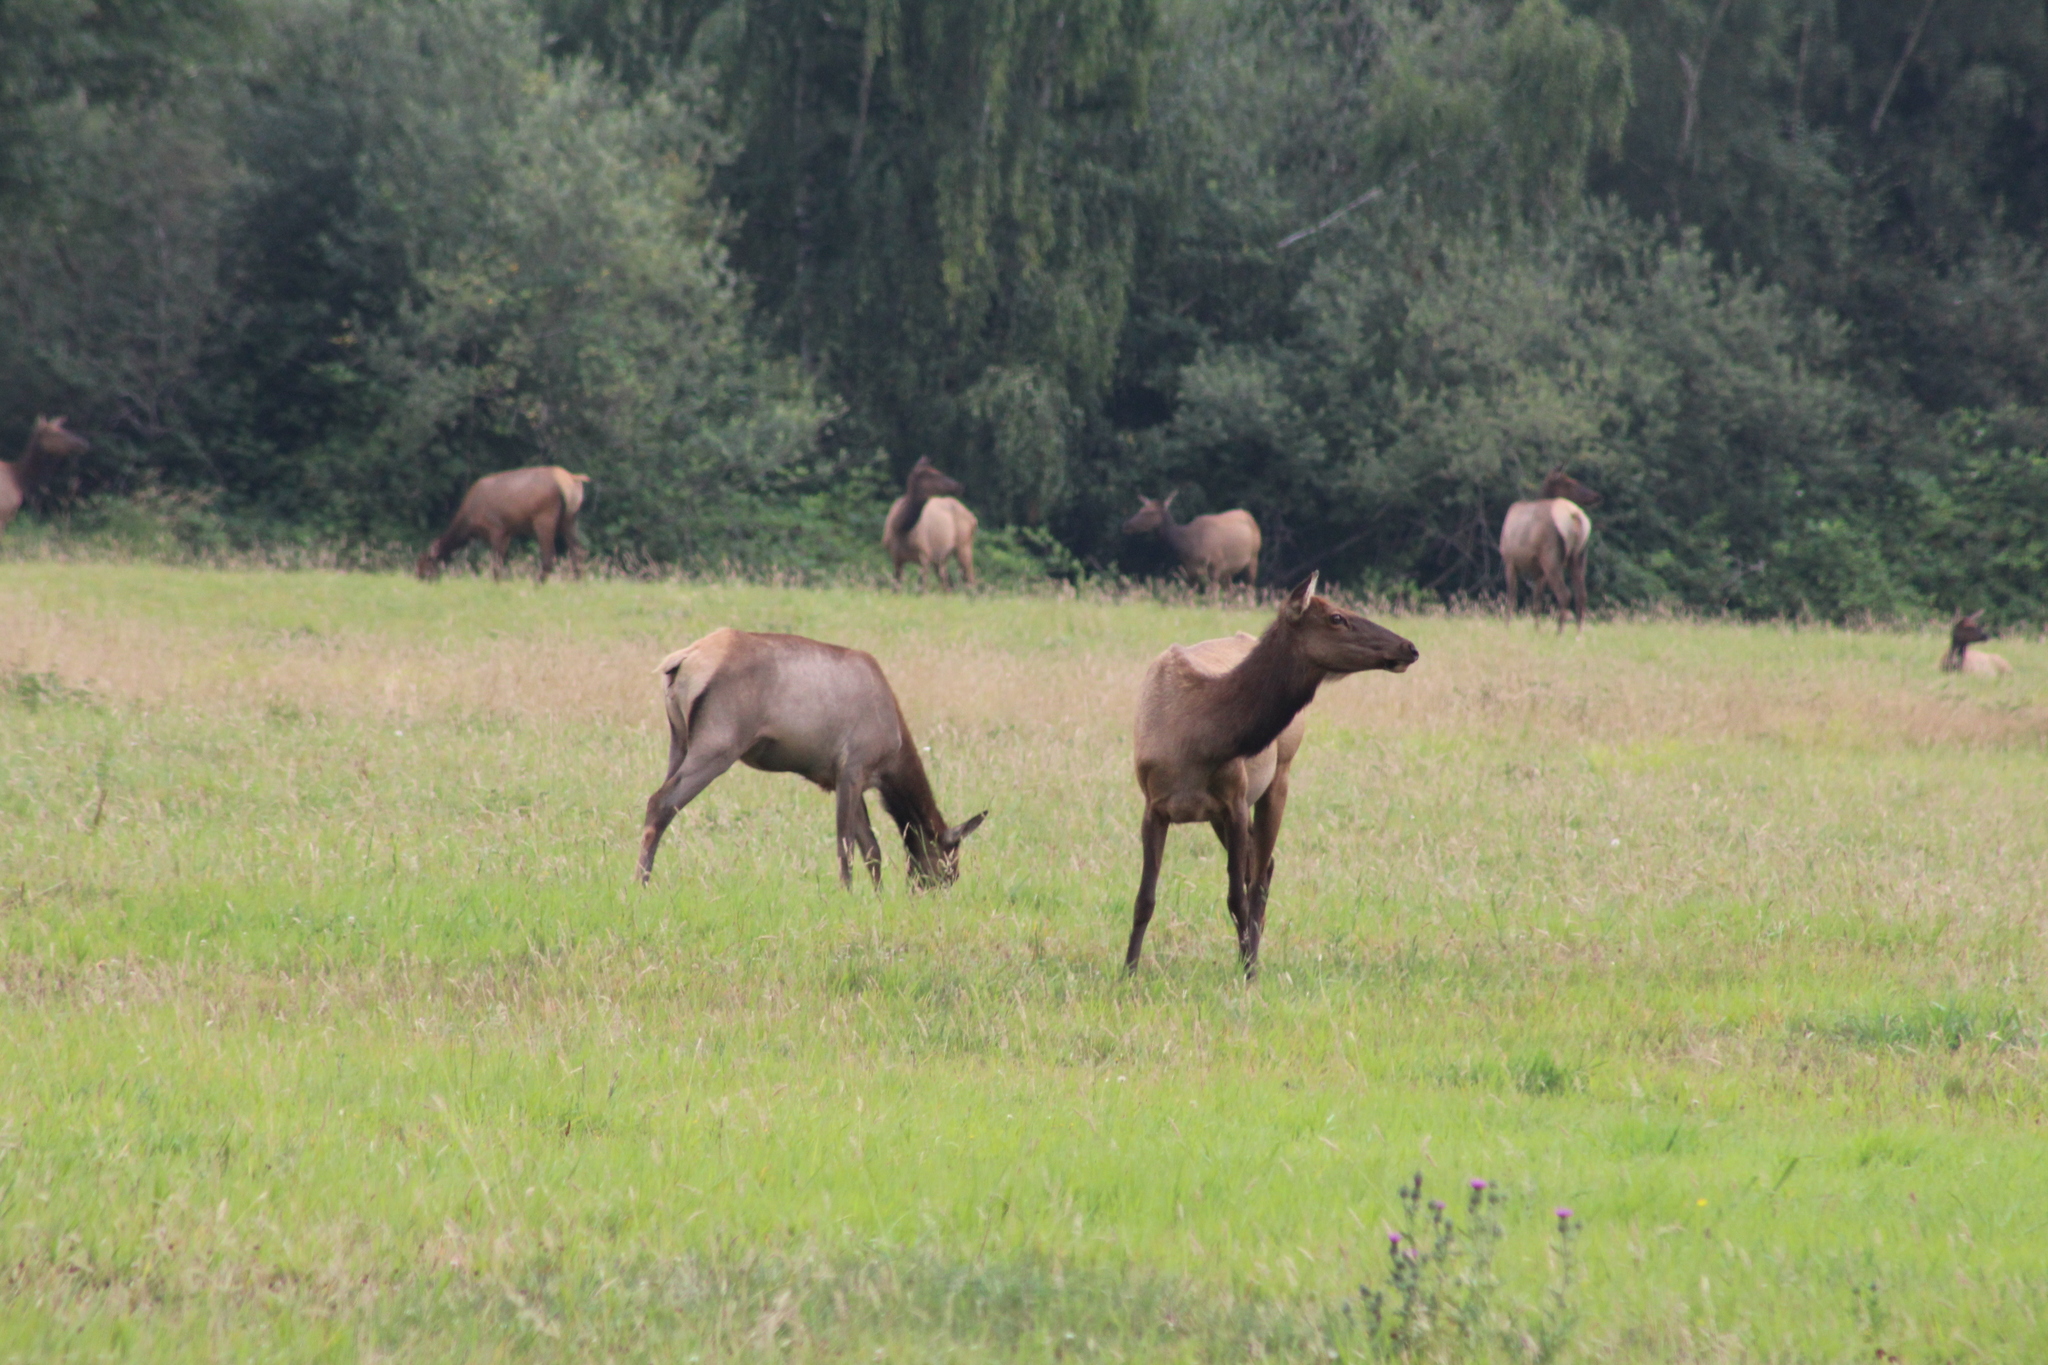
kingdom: Animalia
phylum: Chordata
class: Mammalia
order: Artiodactyla
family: Cervidae
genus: Cervus
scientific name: Cervus elaphus
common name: Red deer
